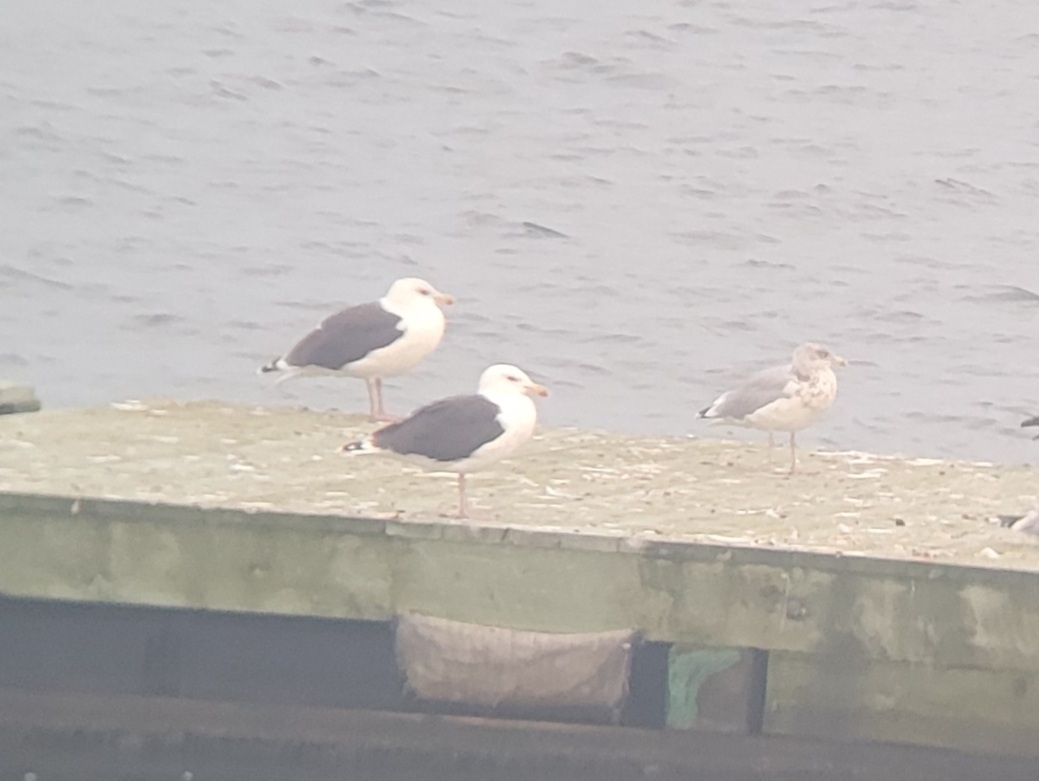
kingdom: Animalia
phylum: Chordata
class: Aves
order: Charadriiformes
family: Laridae
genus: Larus
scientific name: Larus marinus
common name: Great black-backed gull
